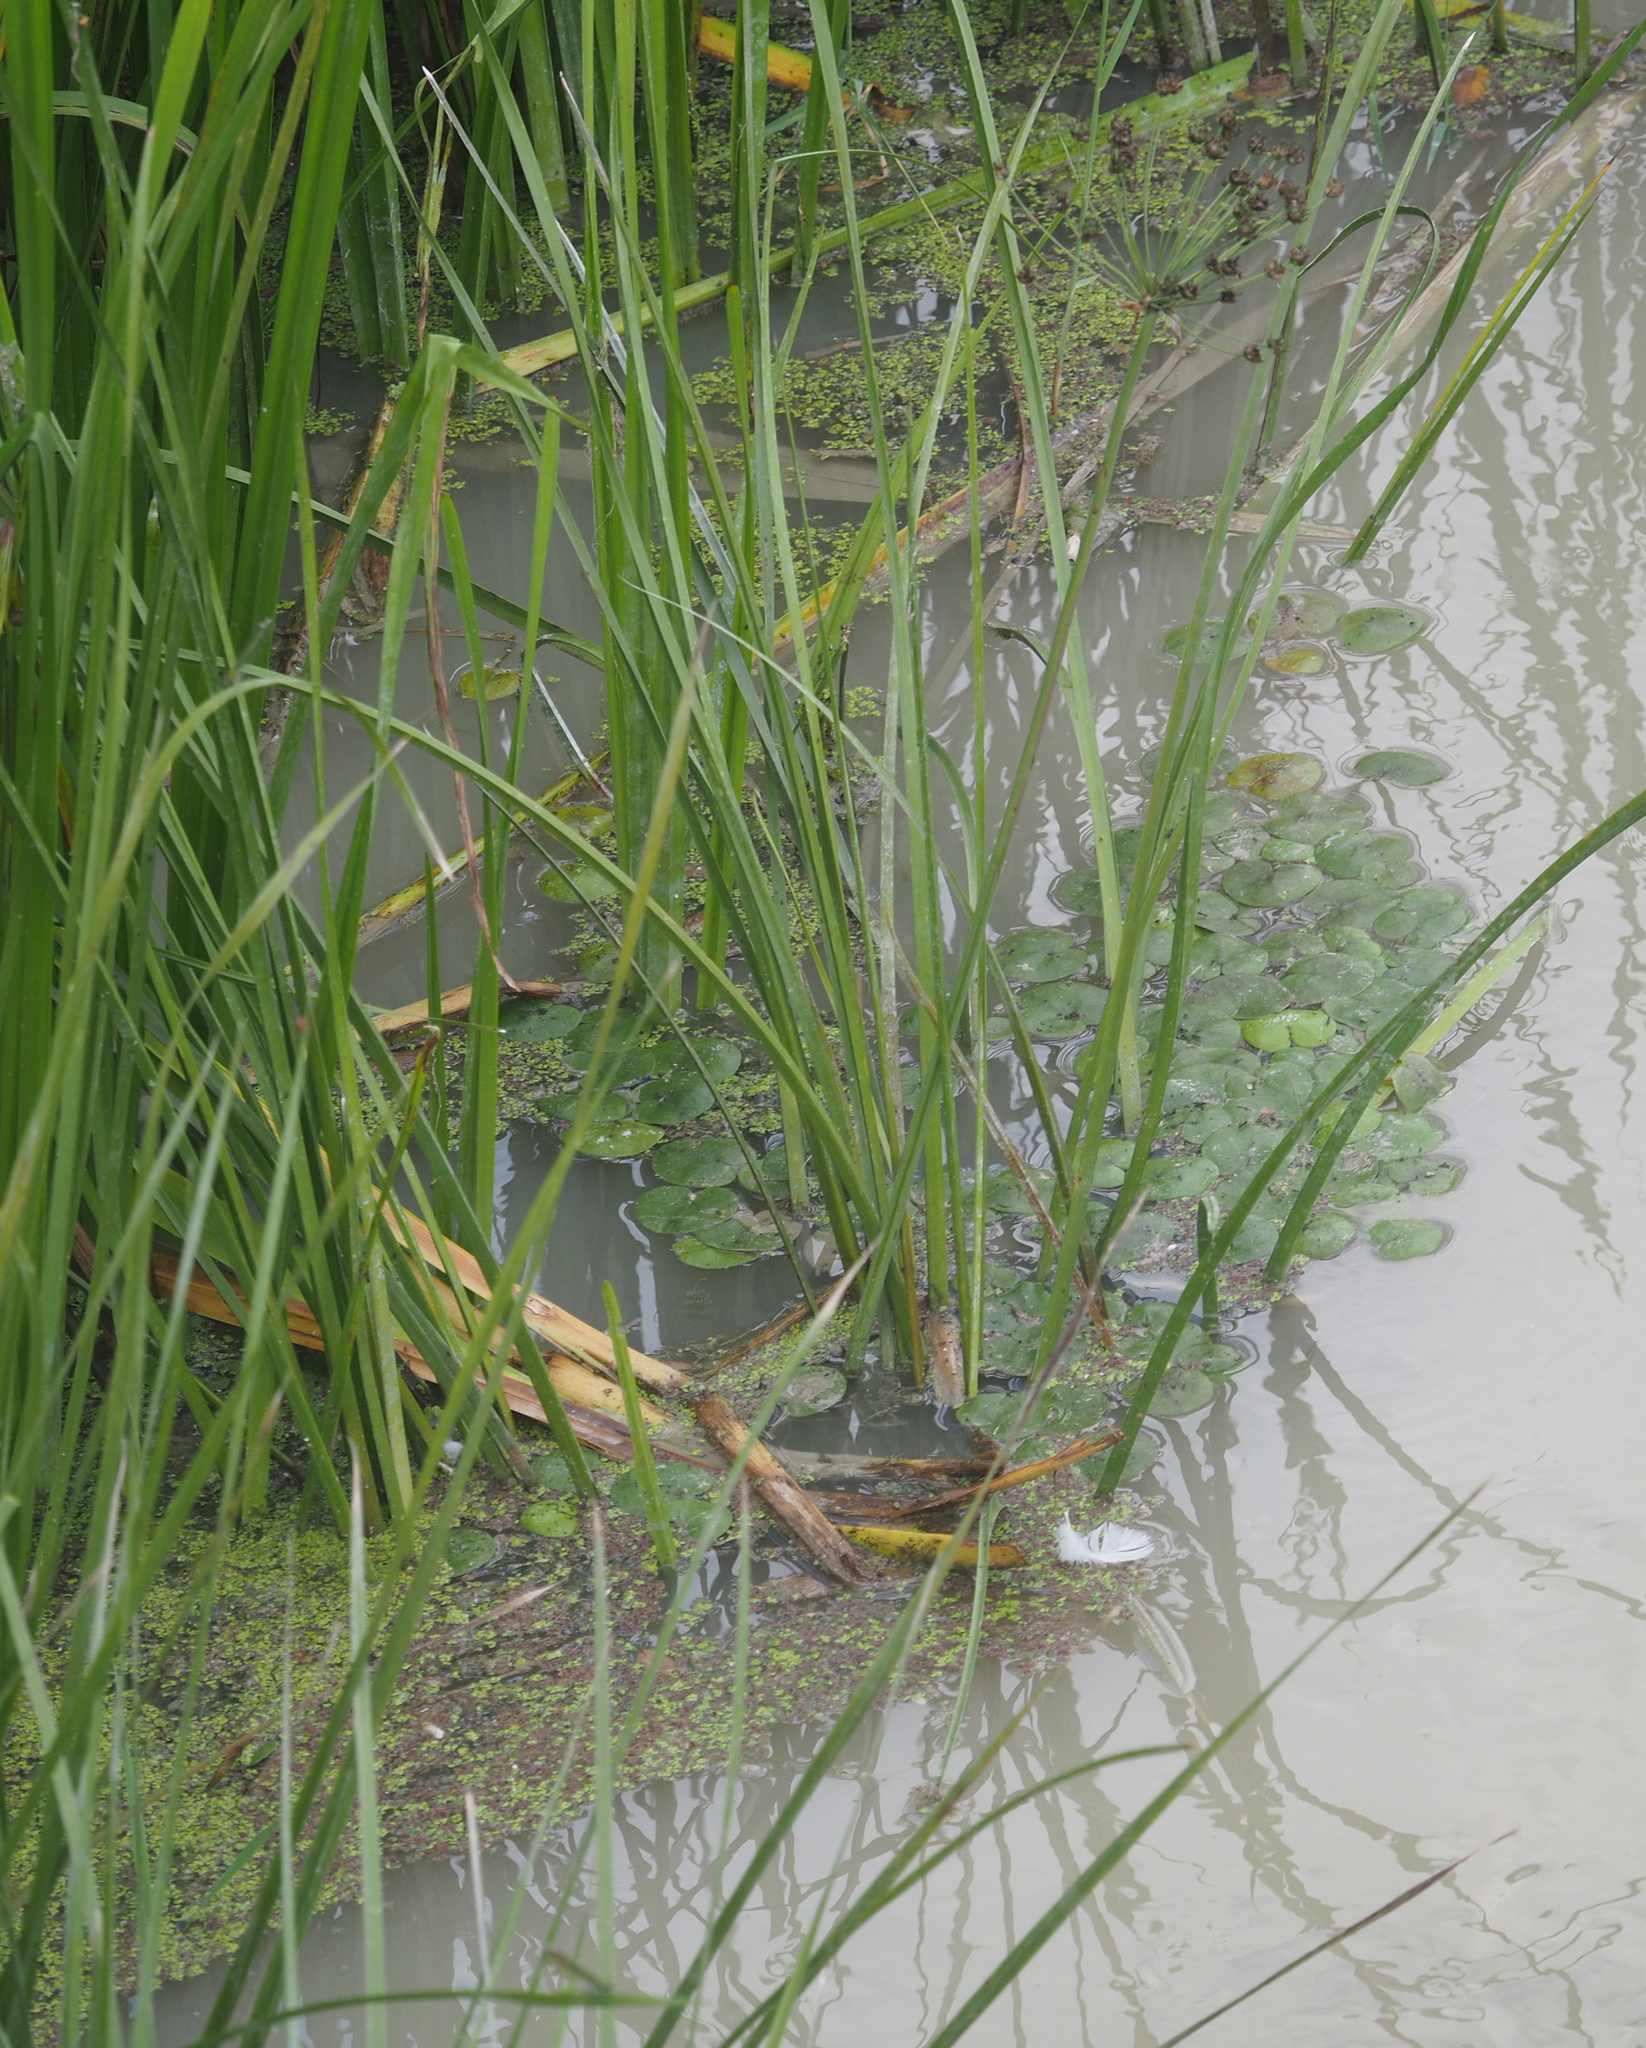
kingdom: Plantae
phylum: Tracheophyta
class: Liliopsida
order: Alismatales
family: Hydrocharitaceae
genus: Hydrocharis
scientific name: Hydrocharis morsus-ranae
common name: Frogbit
